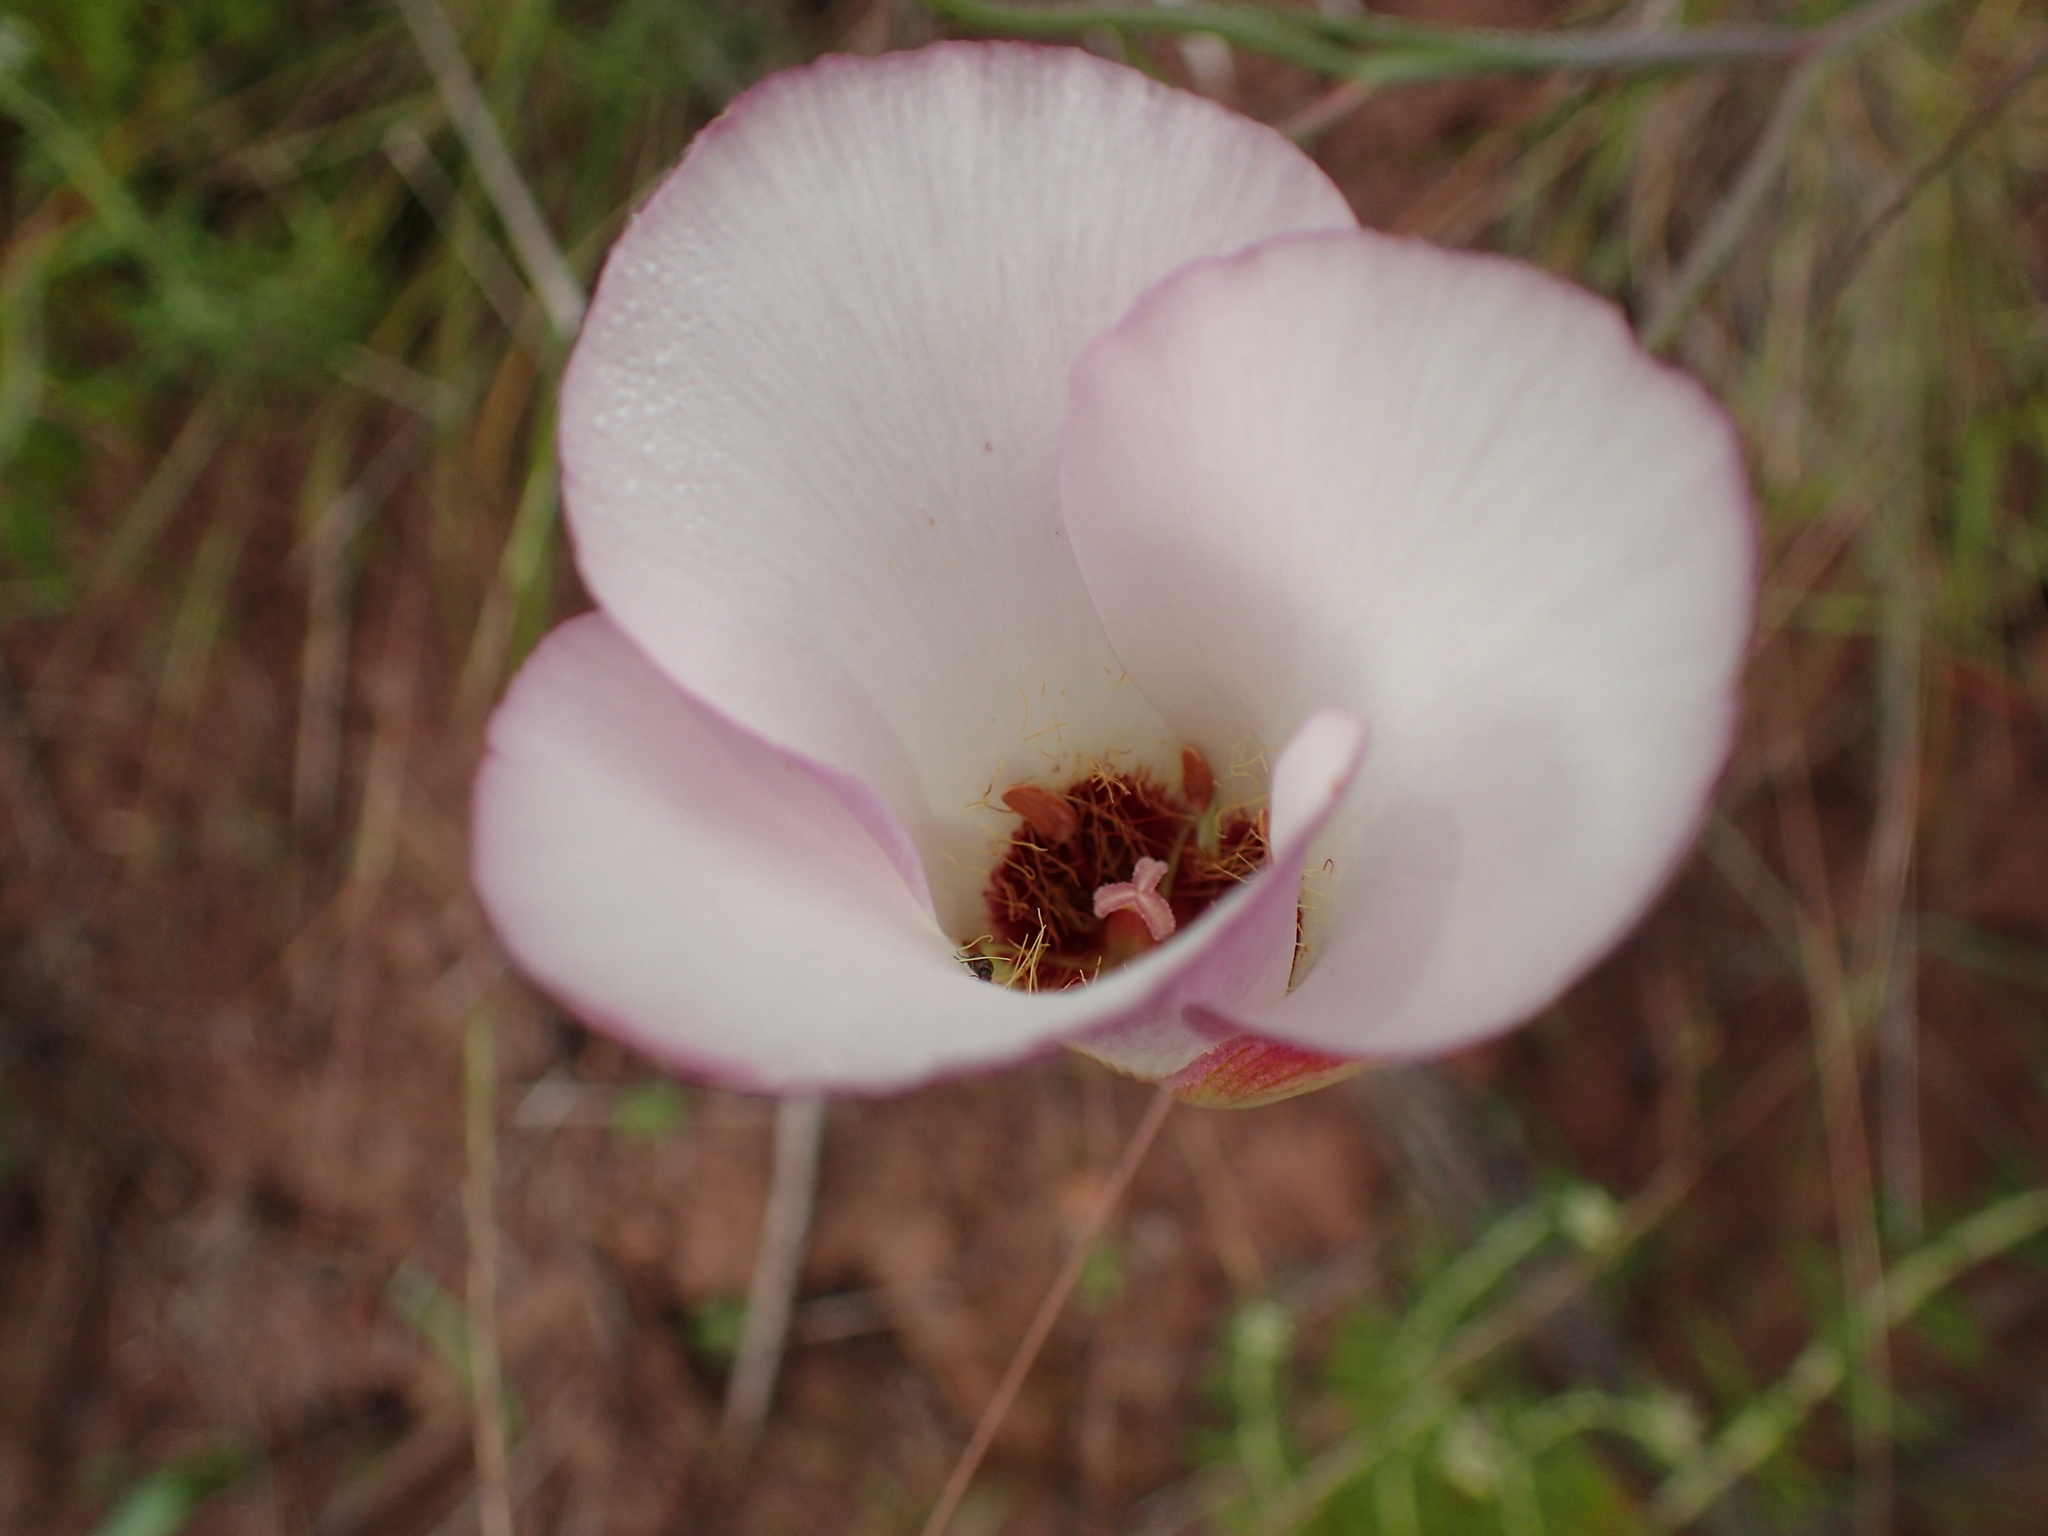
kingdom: Plantae
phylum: Tracheophyta
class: Liliopsida
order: Liliales
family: Liliaceae
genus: Calochortus
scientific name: Calochortus catalinae
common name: Catalina mariposa-lily
